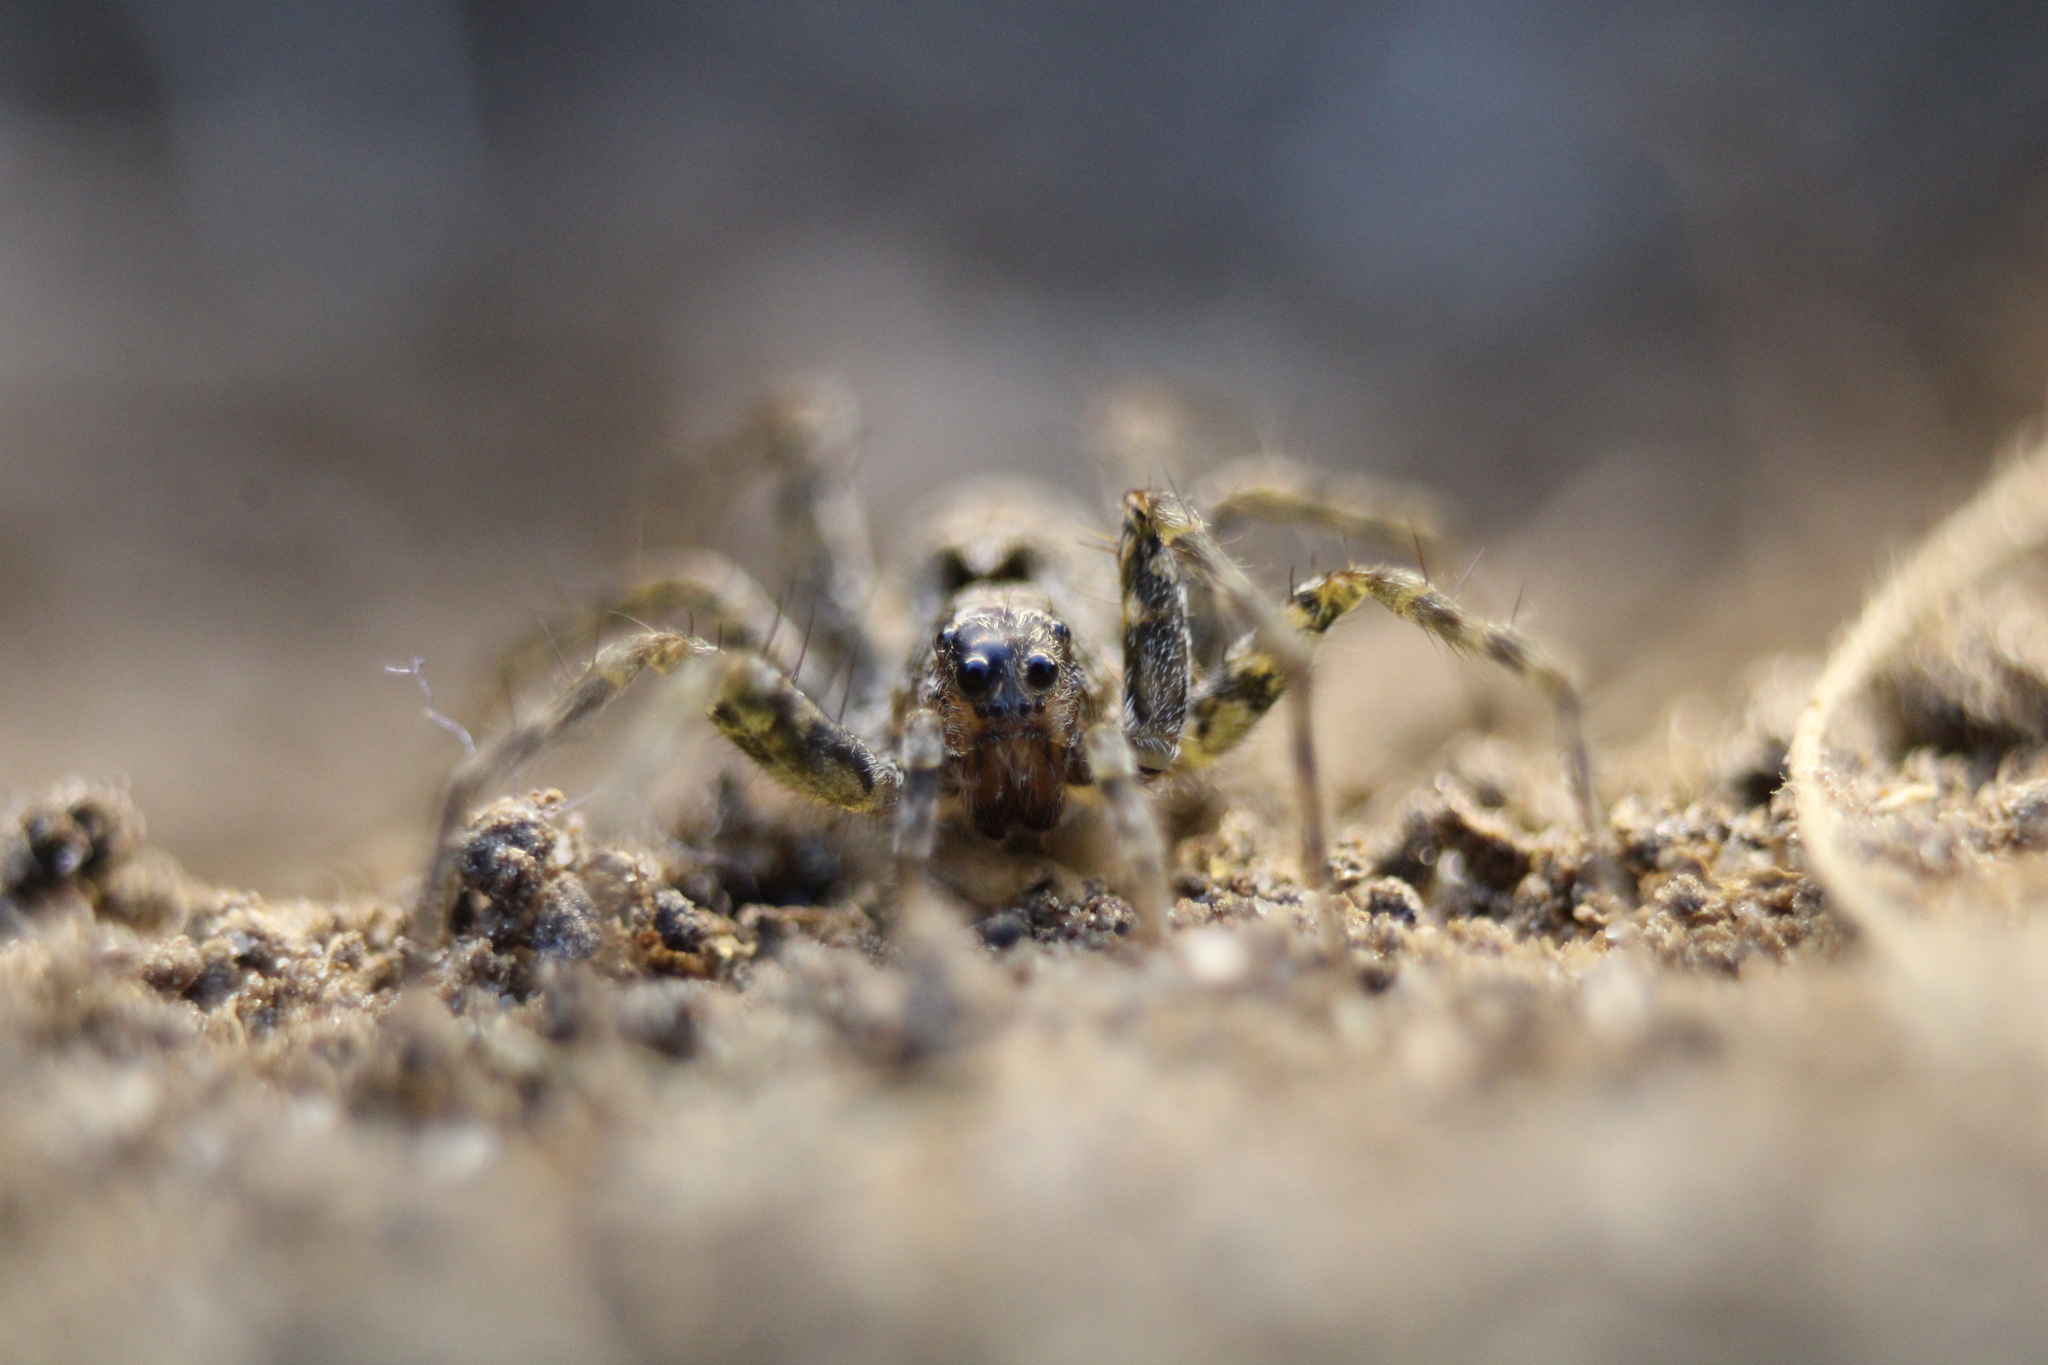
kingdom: Animalia
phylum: Arthropoda
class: Arachnida
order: Araneae
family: Lycosidae
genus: Pardosa
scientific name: Pardosa milvina
